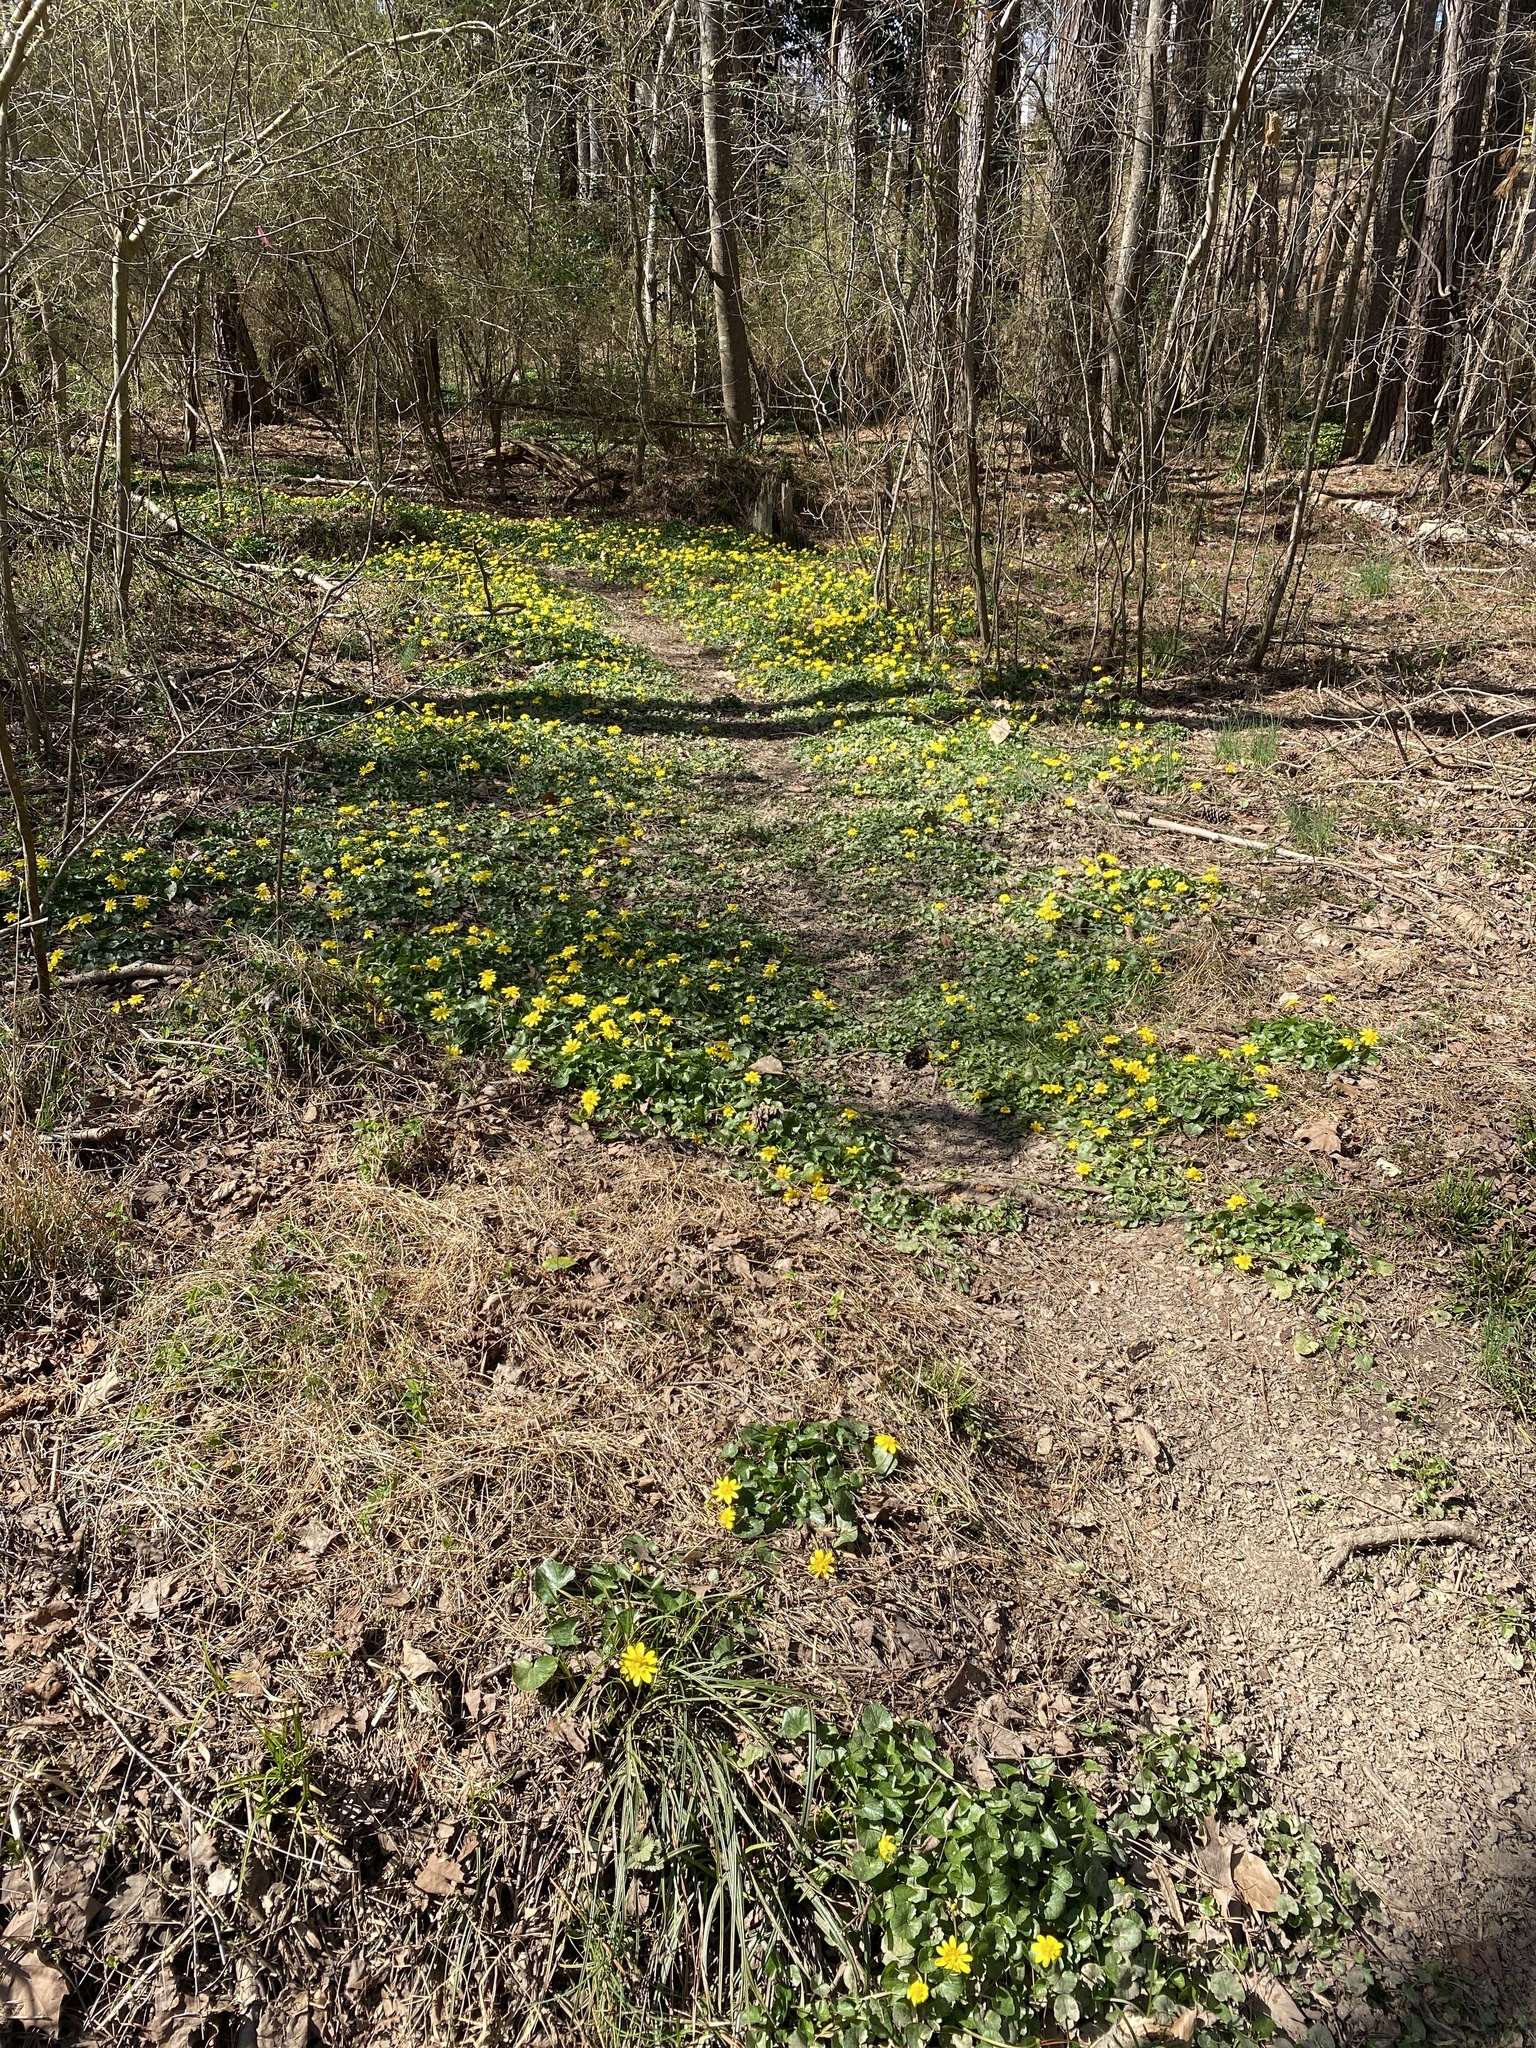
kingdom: Plantae
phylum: Tracheophyta
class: Magnoliopsida
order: Ranunculales
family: Ranunculaceae
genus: Ficaria
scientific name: Ficaria verna
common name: Lesser celandine
